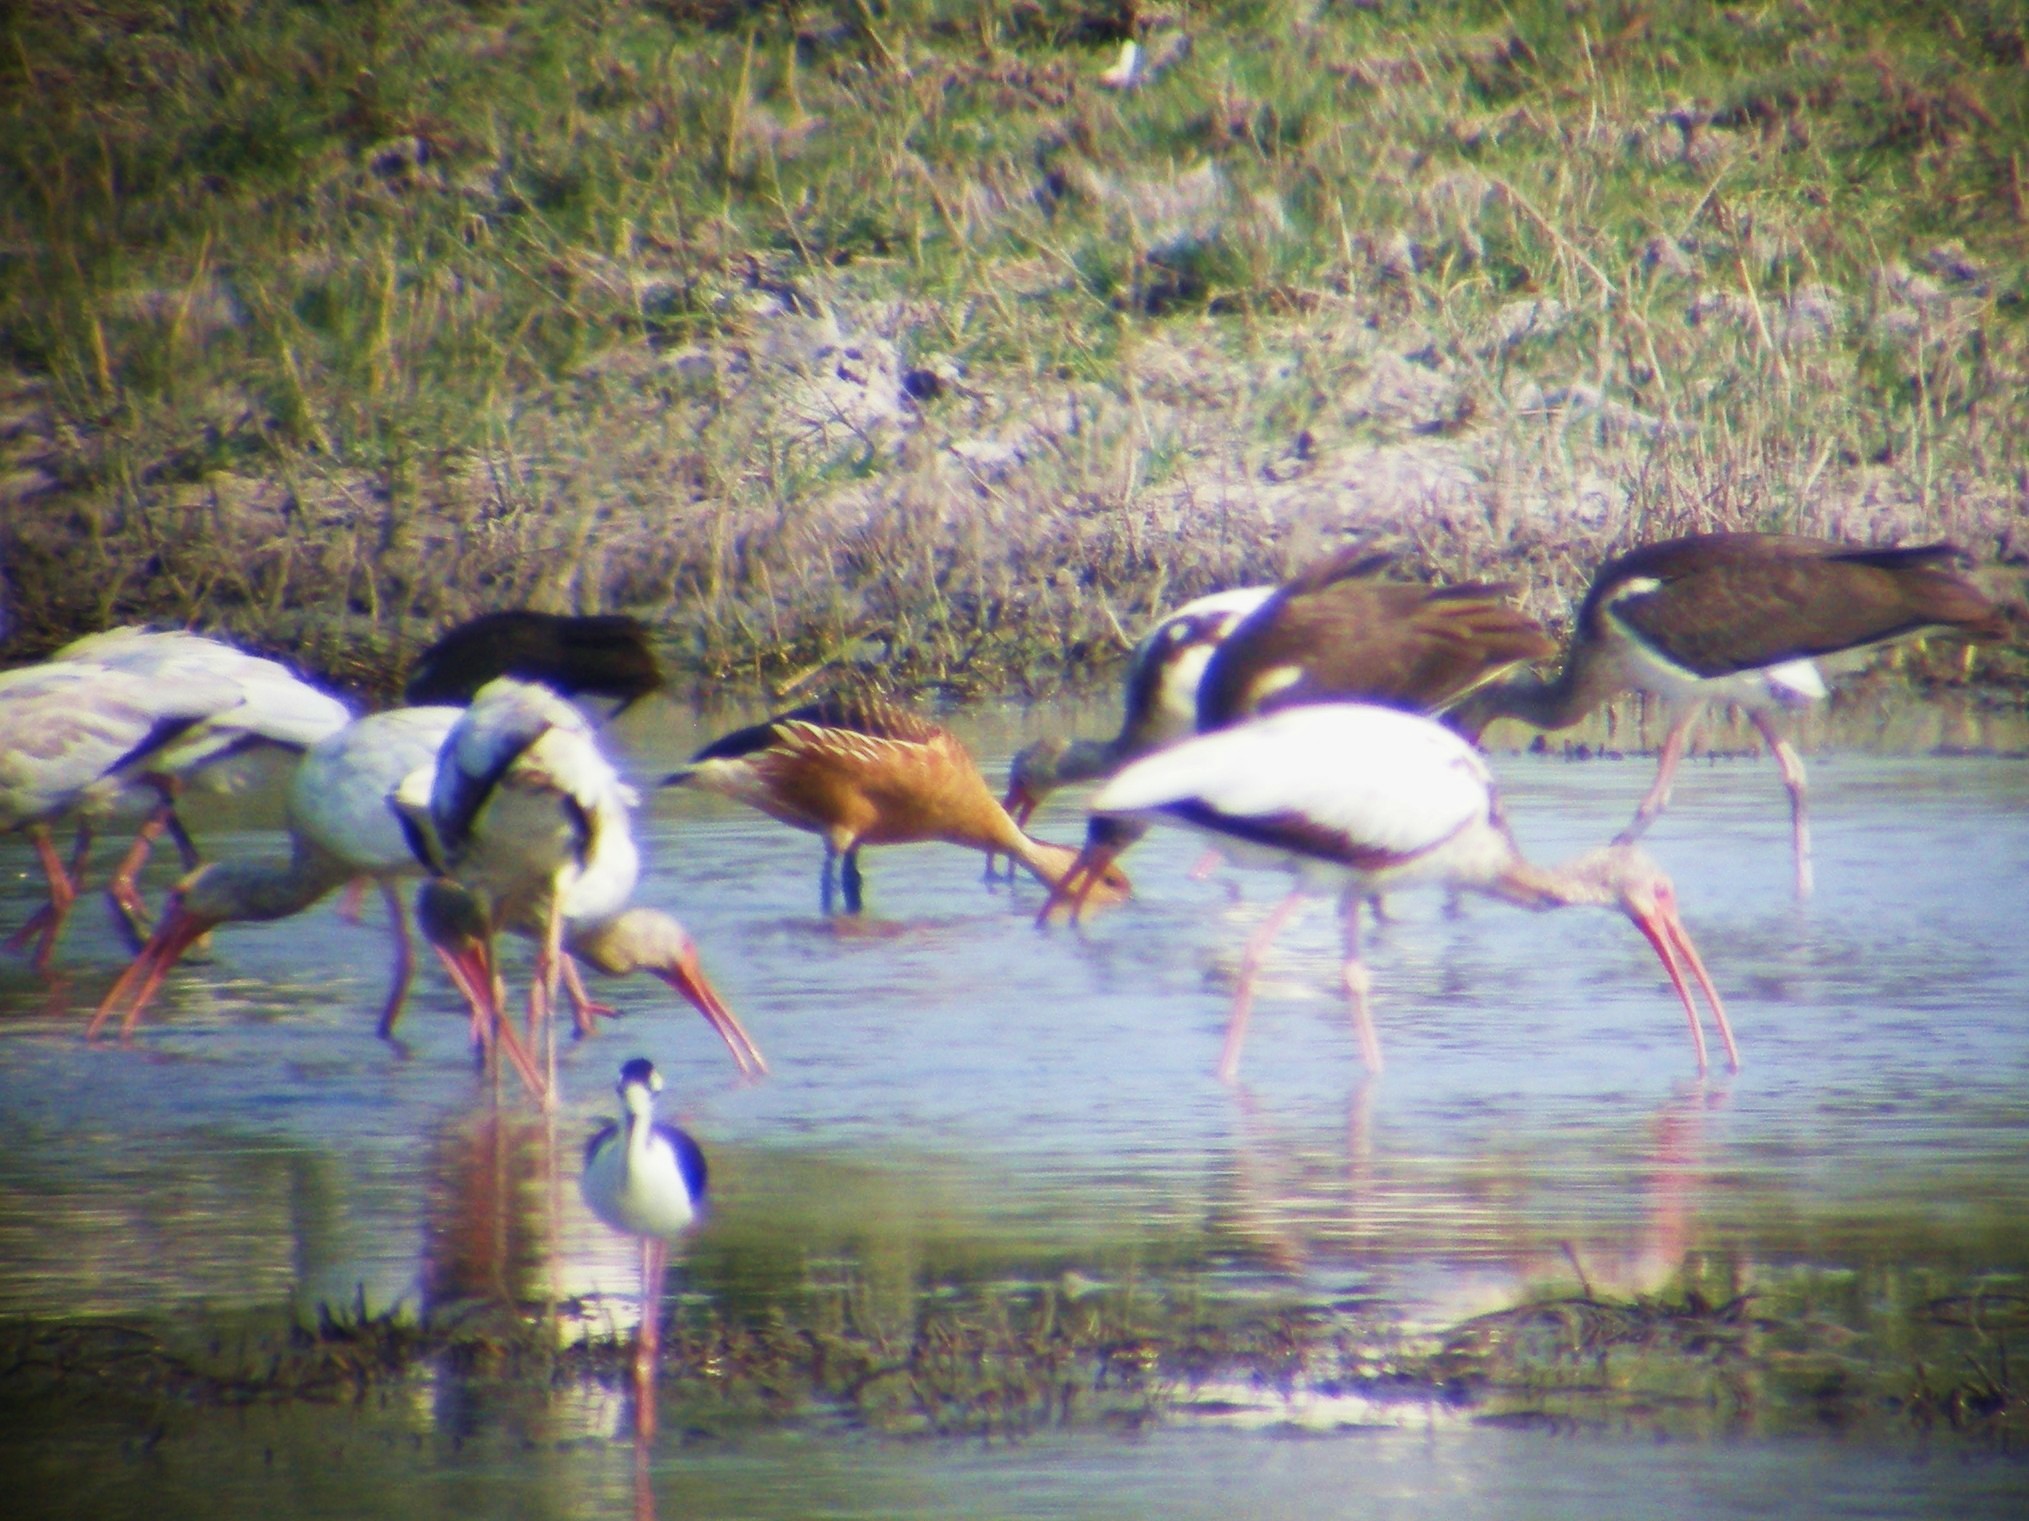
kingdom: Animalia
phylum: Chordata
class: Aves
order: Anseriformes
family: Anatidae
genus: Dendrocygna
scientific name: Dendrocygna bicolor
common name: Fulvous whistling duck
